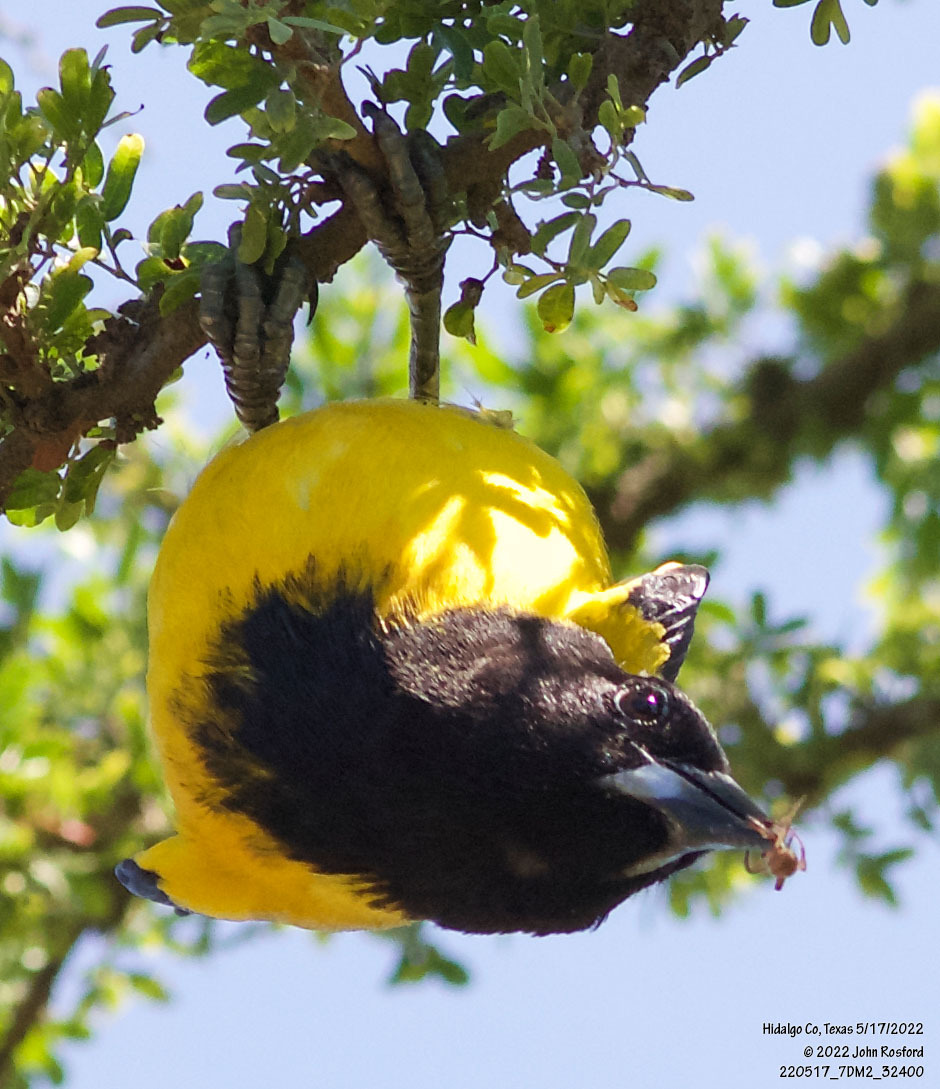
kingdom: Animalia
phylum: Chordata
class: Aves
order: Passeriformes
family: Icteridae
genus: Icterus
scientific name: Icterus graduacauda
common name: Audubon's oriole
